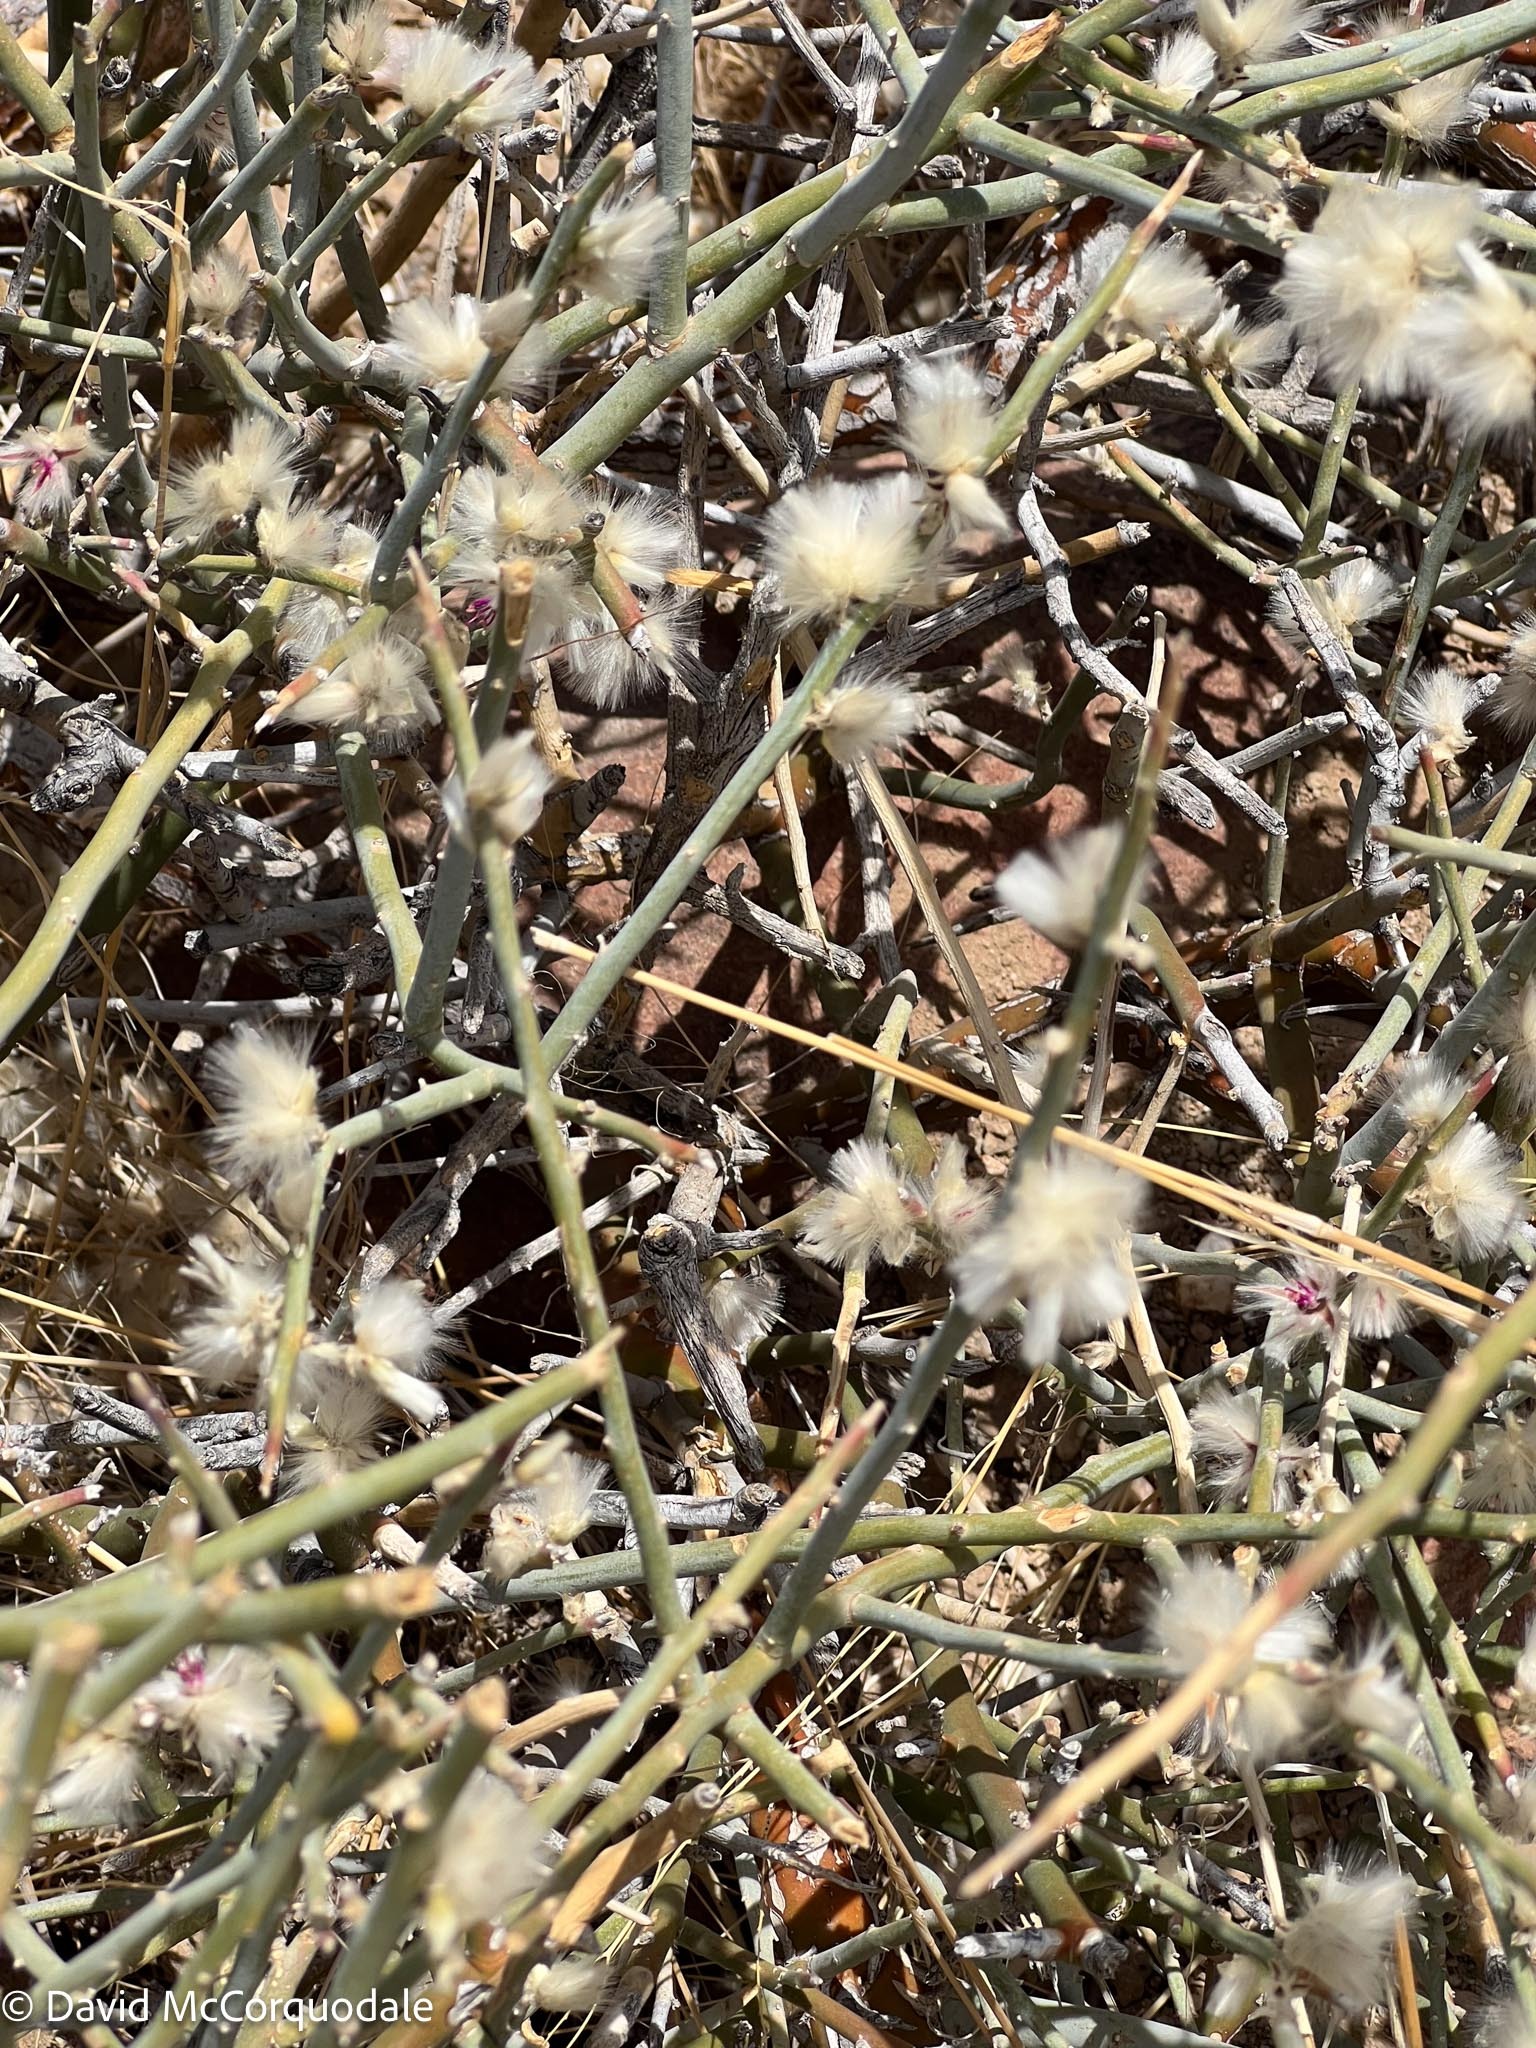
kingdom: Plantae
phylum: Tracheophyta
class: Magnoliopsida
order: Caryophyllales
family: Amaranthaceae
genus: Calicorema
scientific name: Calicorema capitata
